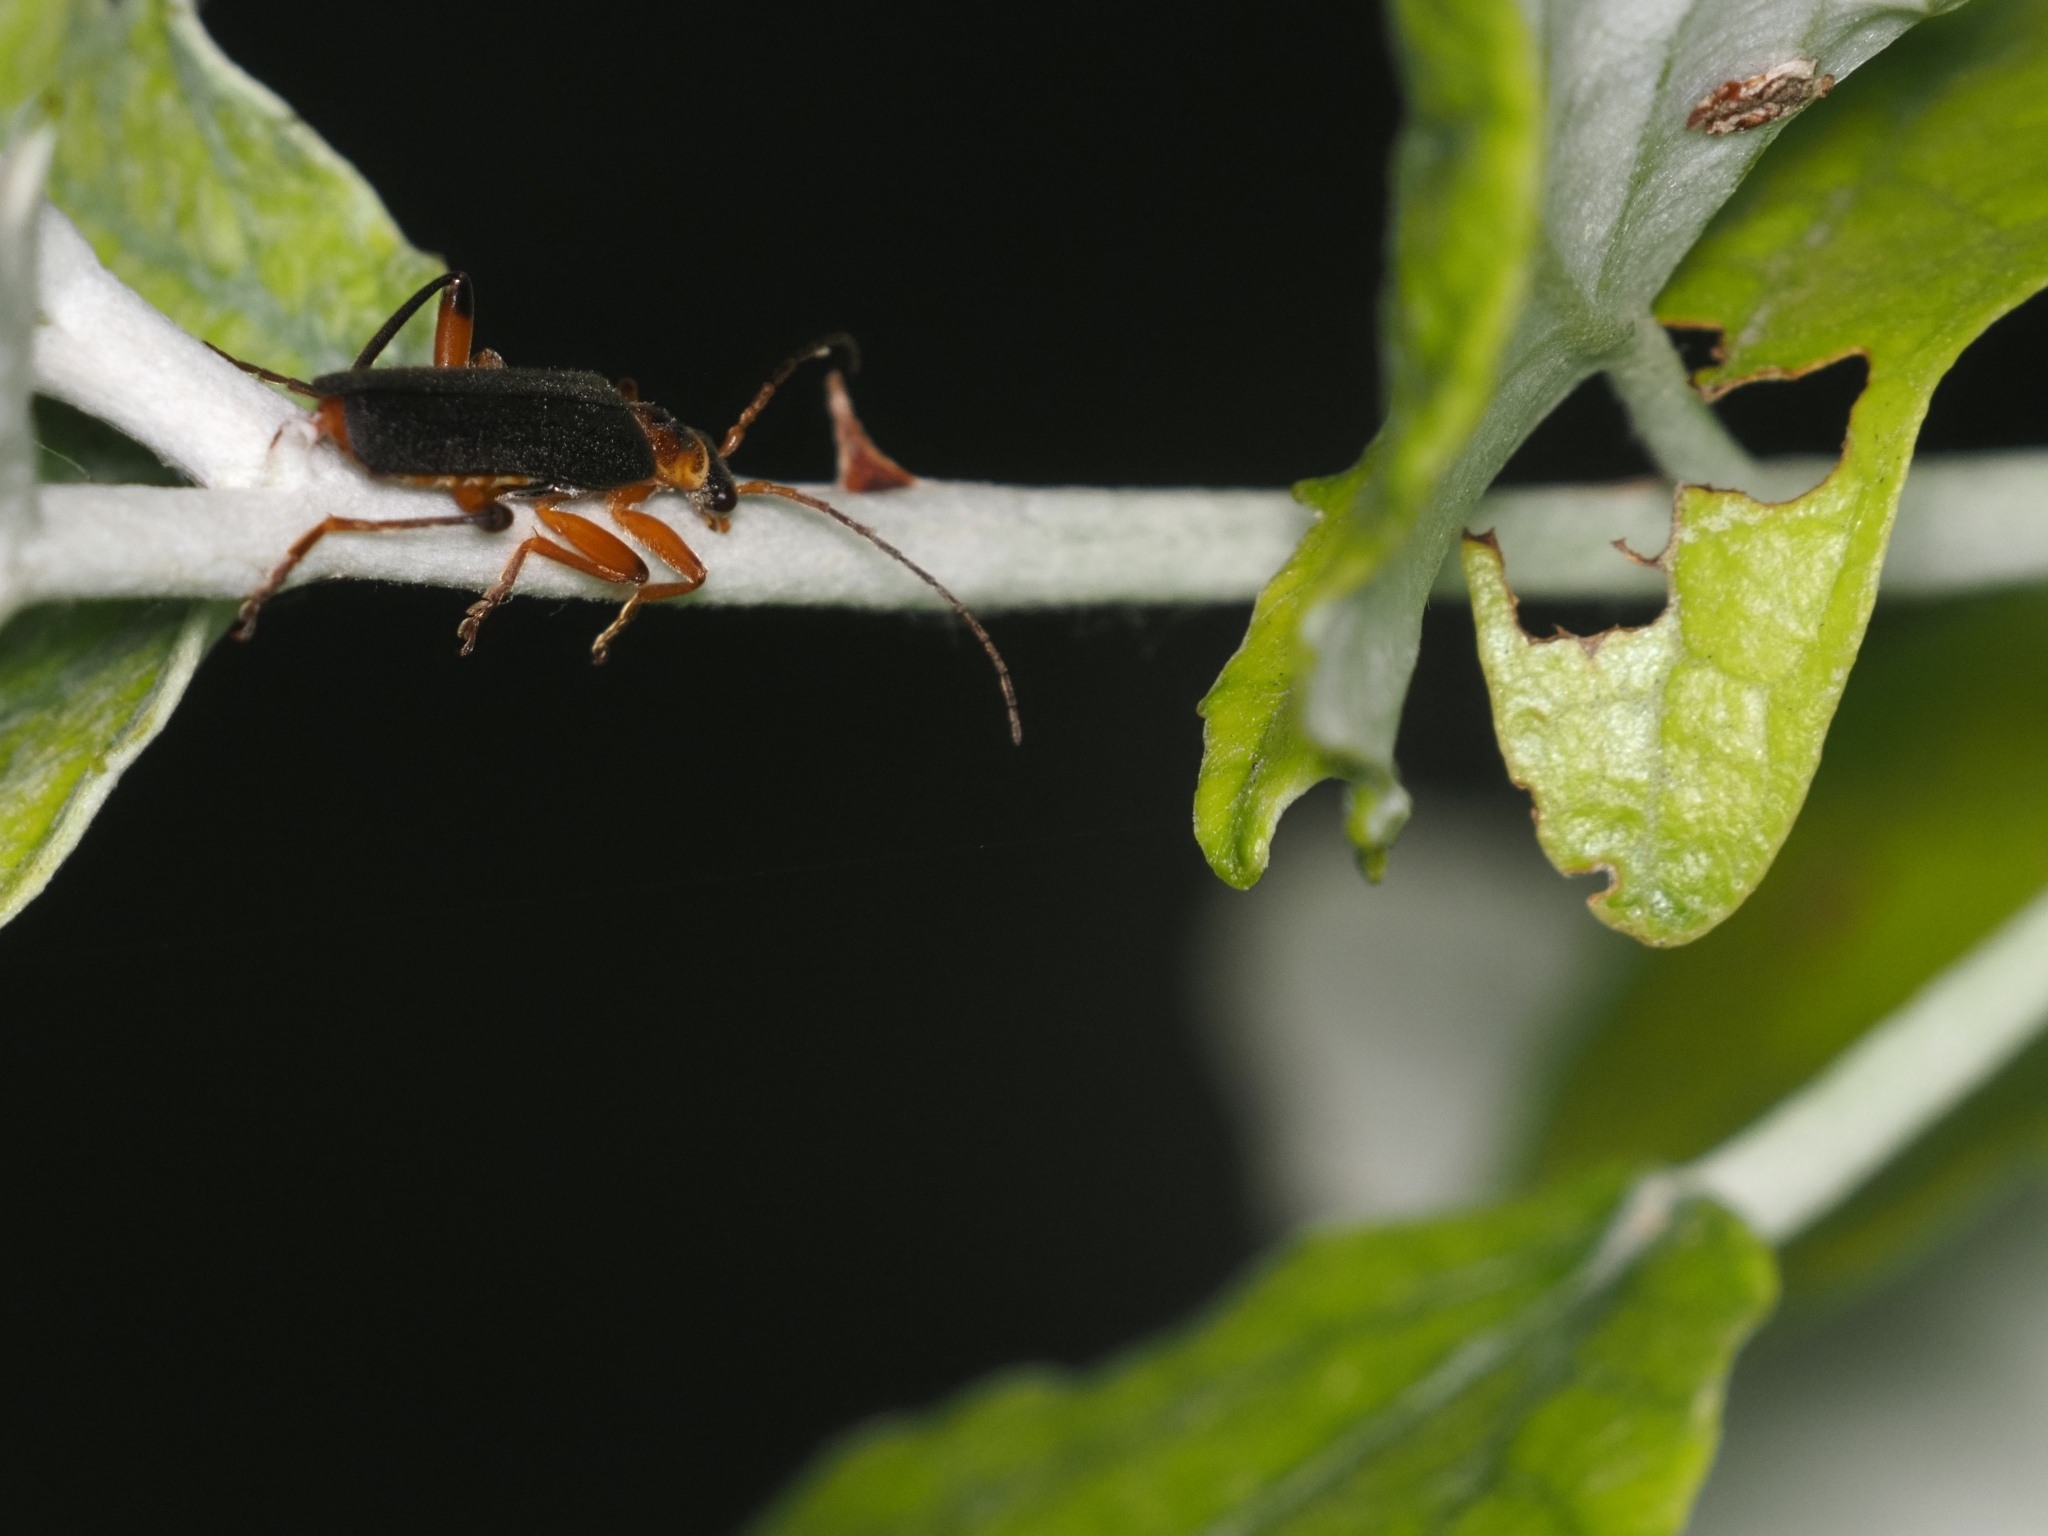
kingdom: Animalia
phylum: Arthropoda
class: Insecta
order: Coleoptera
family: Cantharidae
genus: Cantharis
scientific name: Cantharis nigricans
